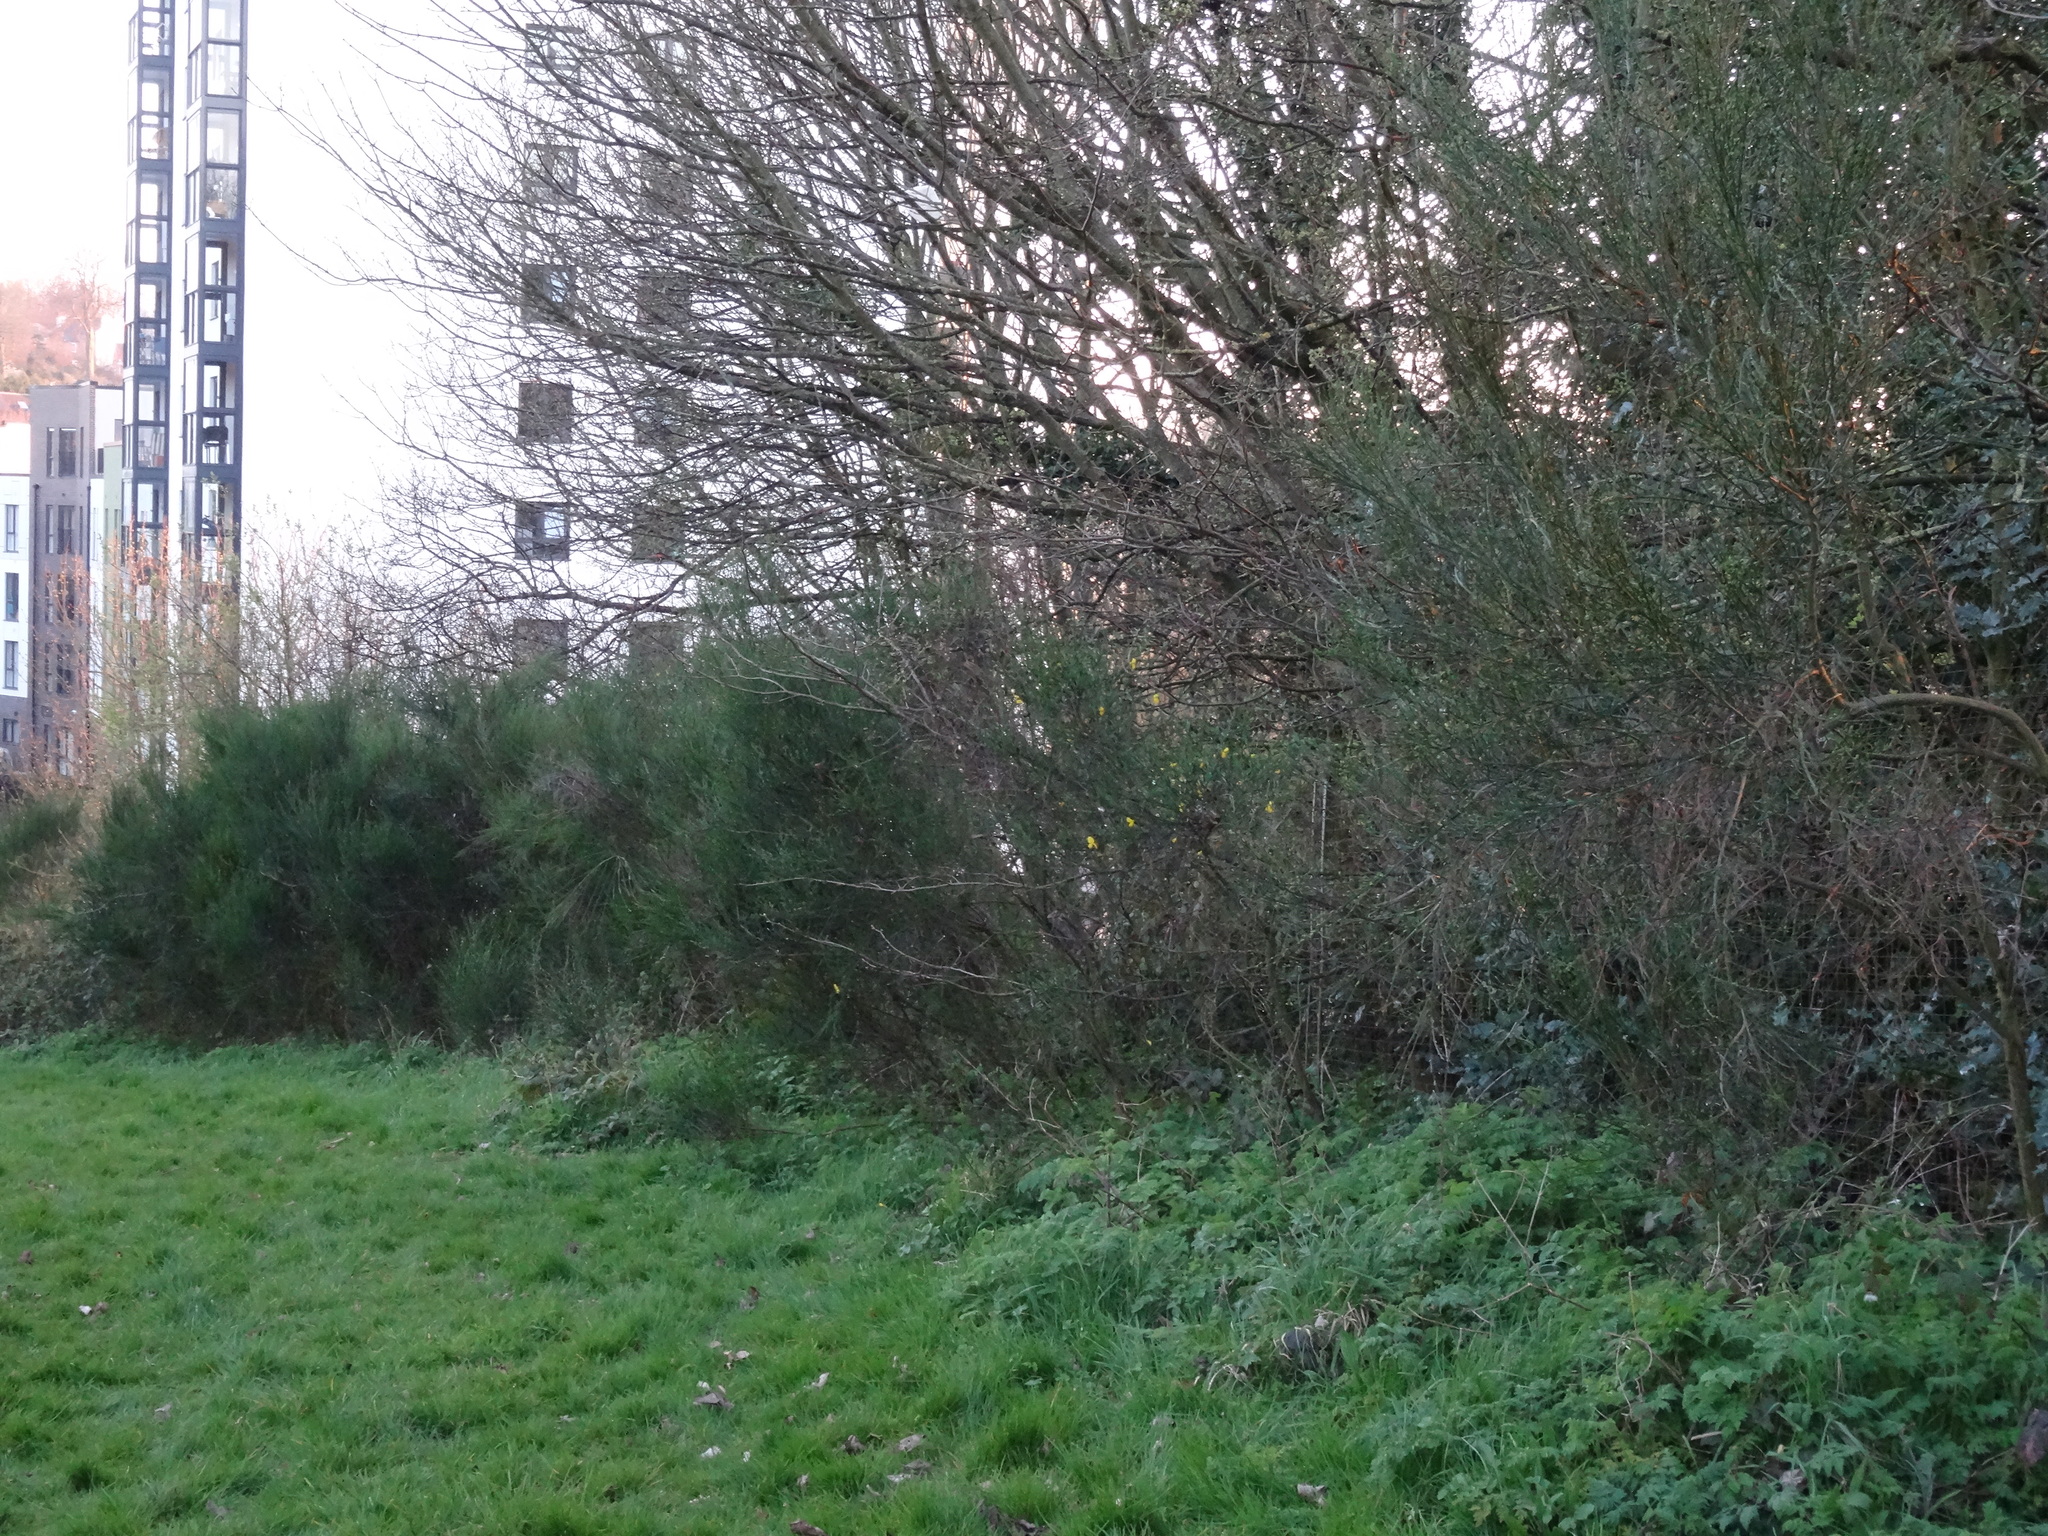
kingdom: Plantae
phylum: Tracheophyta
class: Magnoliopsida
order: Fabales
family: Fabaceae
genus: Cytisus
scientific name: Cytisus scoparius
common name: Scotch broom
